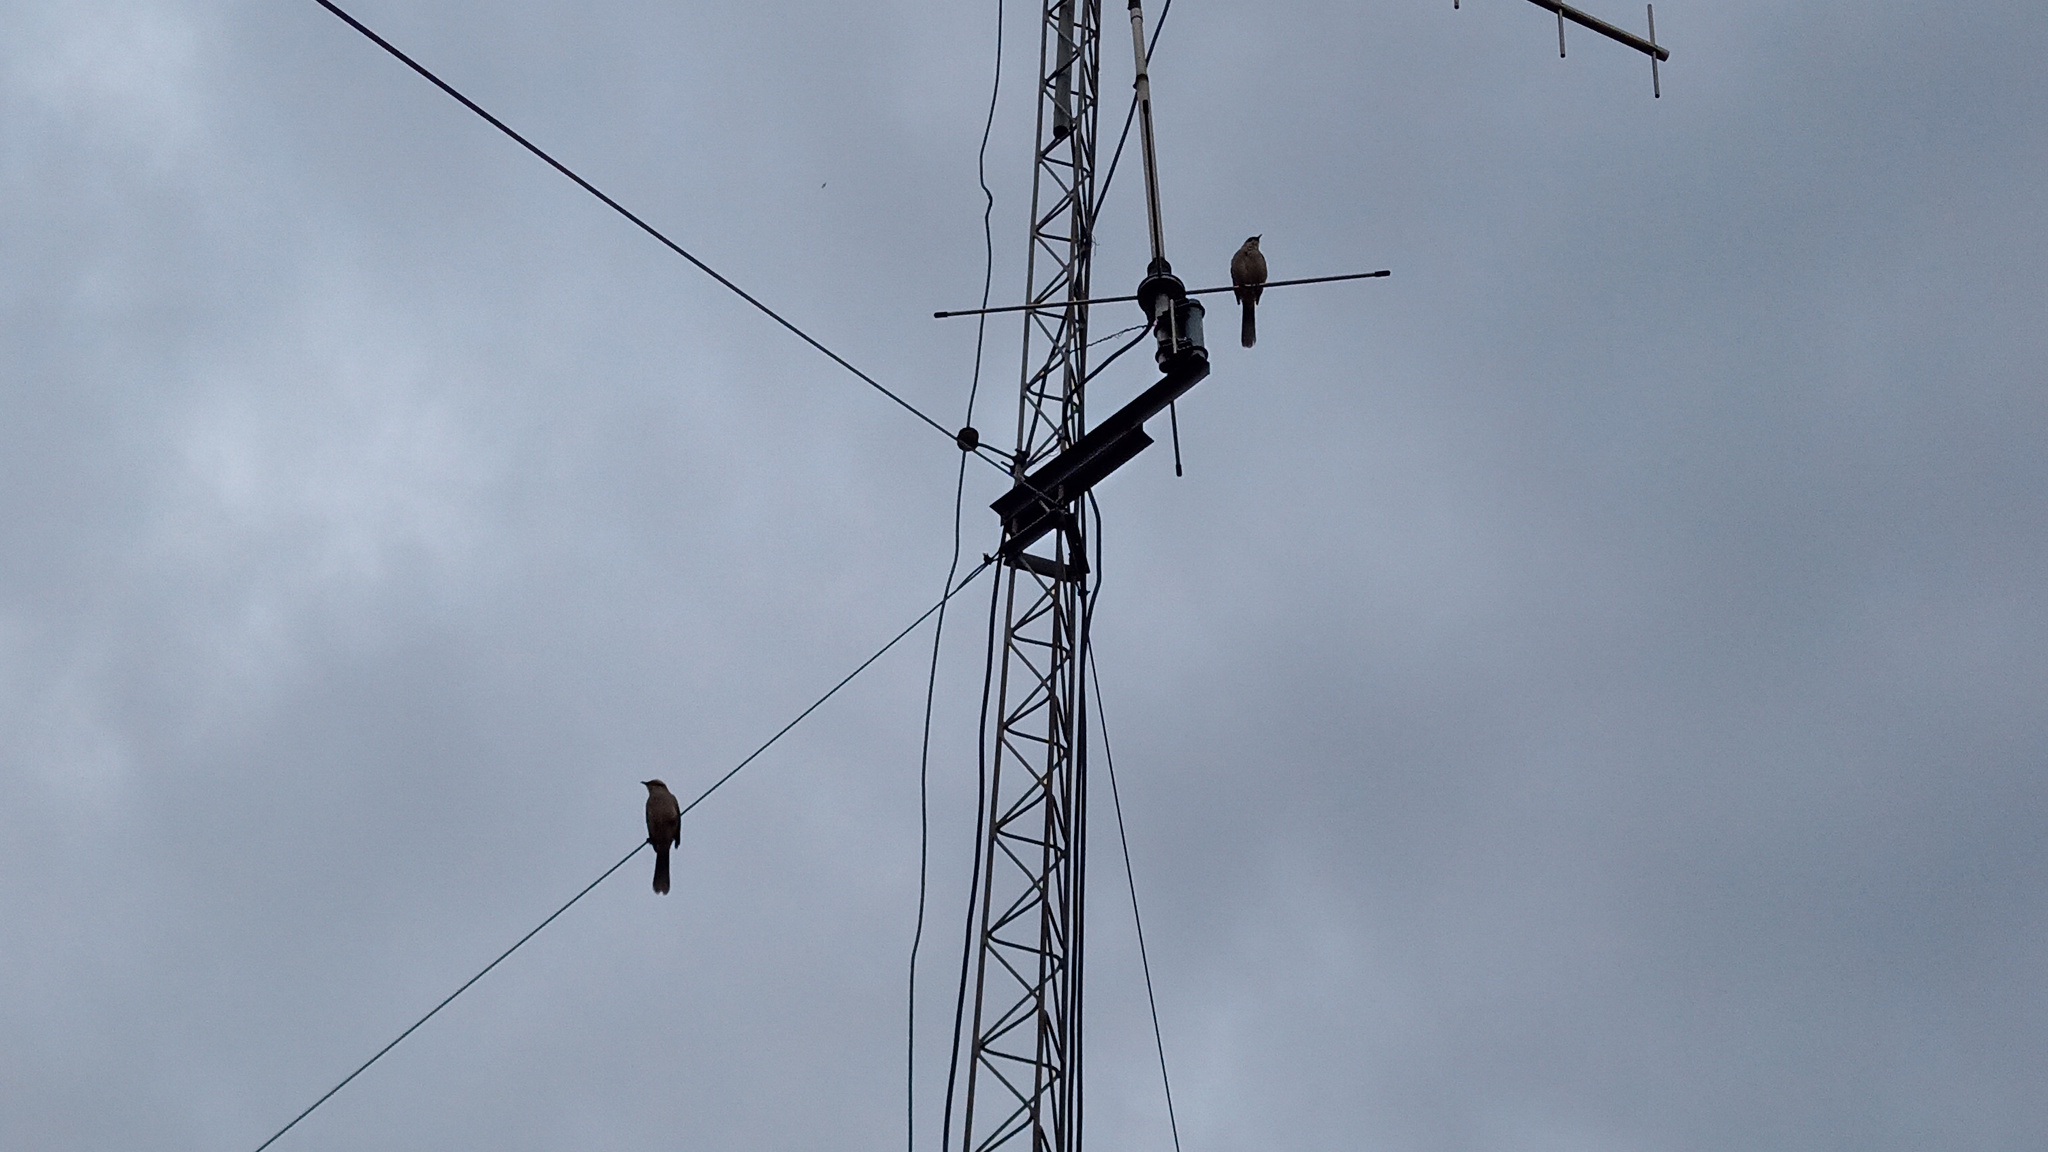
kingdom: Animalia
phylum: Chordata
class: Aves
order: Passeriformes
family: Mimidae
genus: Mimus
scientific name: Mimus saturninus
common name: Chalk-browed mockingbird
